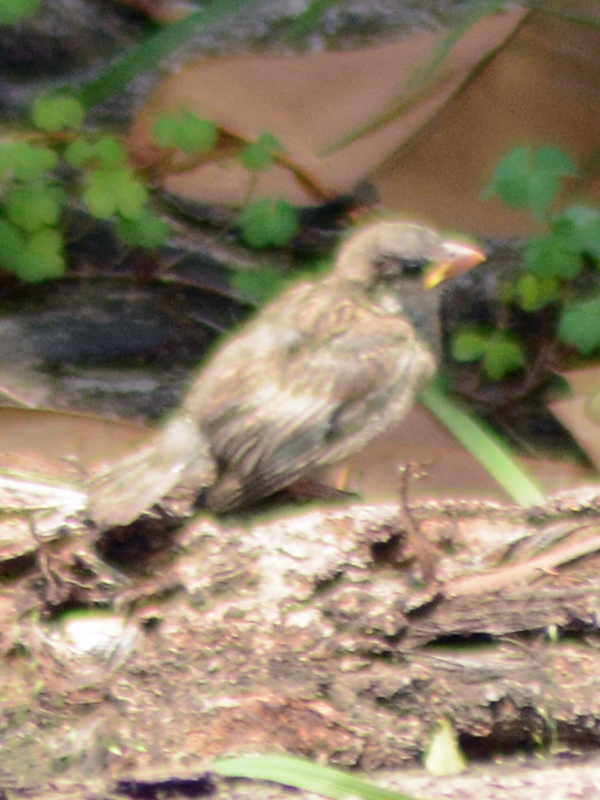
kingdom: Animalia
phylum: Chordata
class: Aves
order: Passeriformes
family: Passeridae
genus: Passer
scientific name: Passer domesticus
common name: House sparrow
